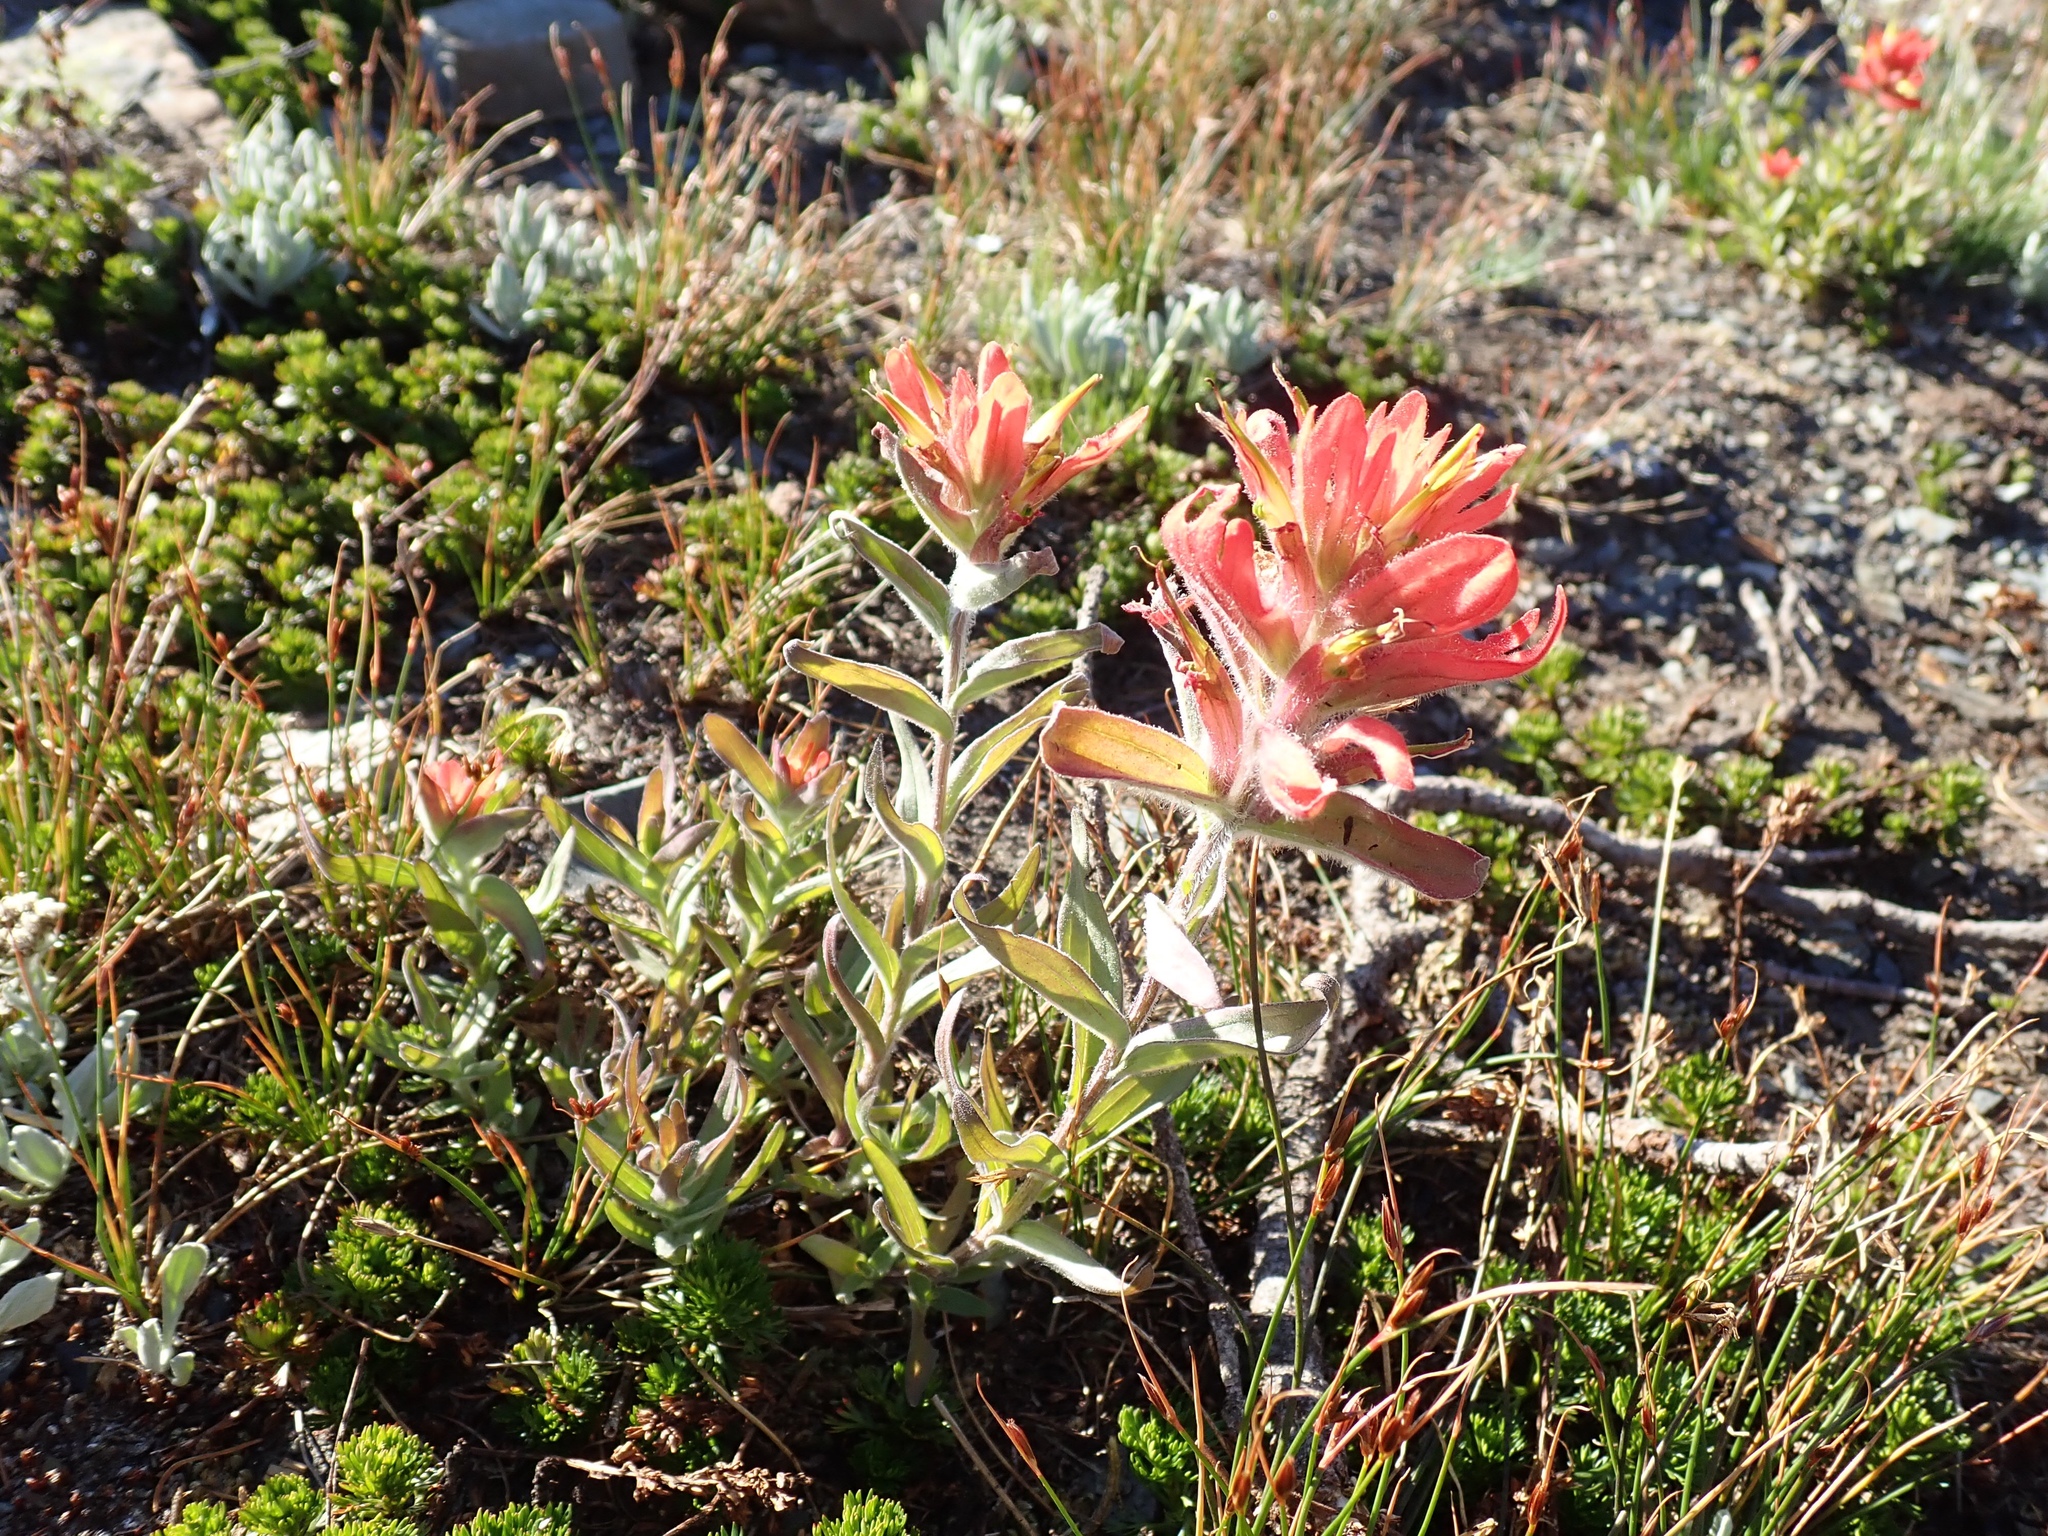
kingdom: Plantae
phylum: Tracheophyta
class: Magnoliopsida
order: Lamiales
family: Orobanchaceae
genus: Castilleja
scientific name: Castilleja elmeri
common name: Elmer's paintbrush
